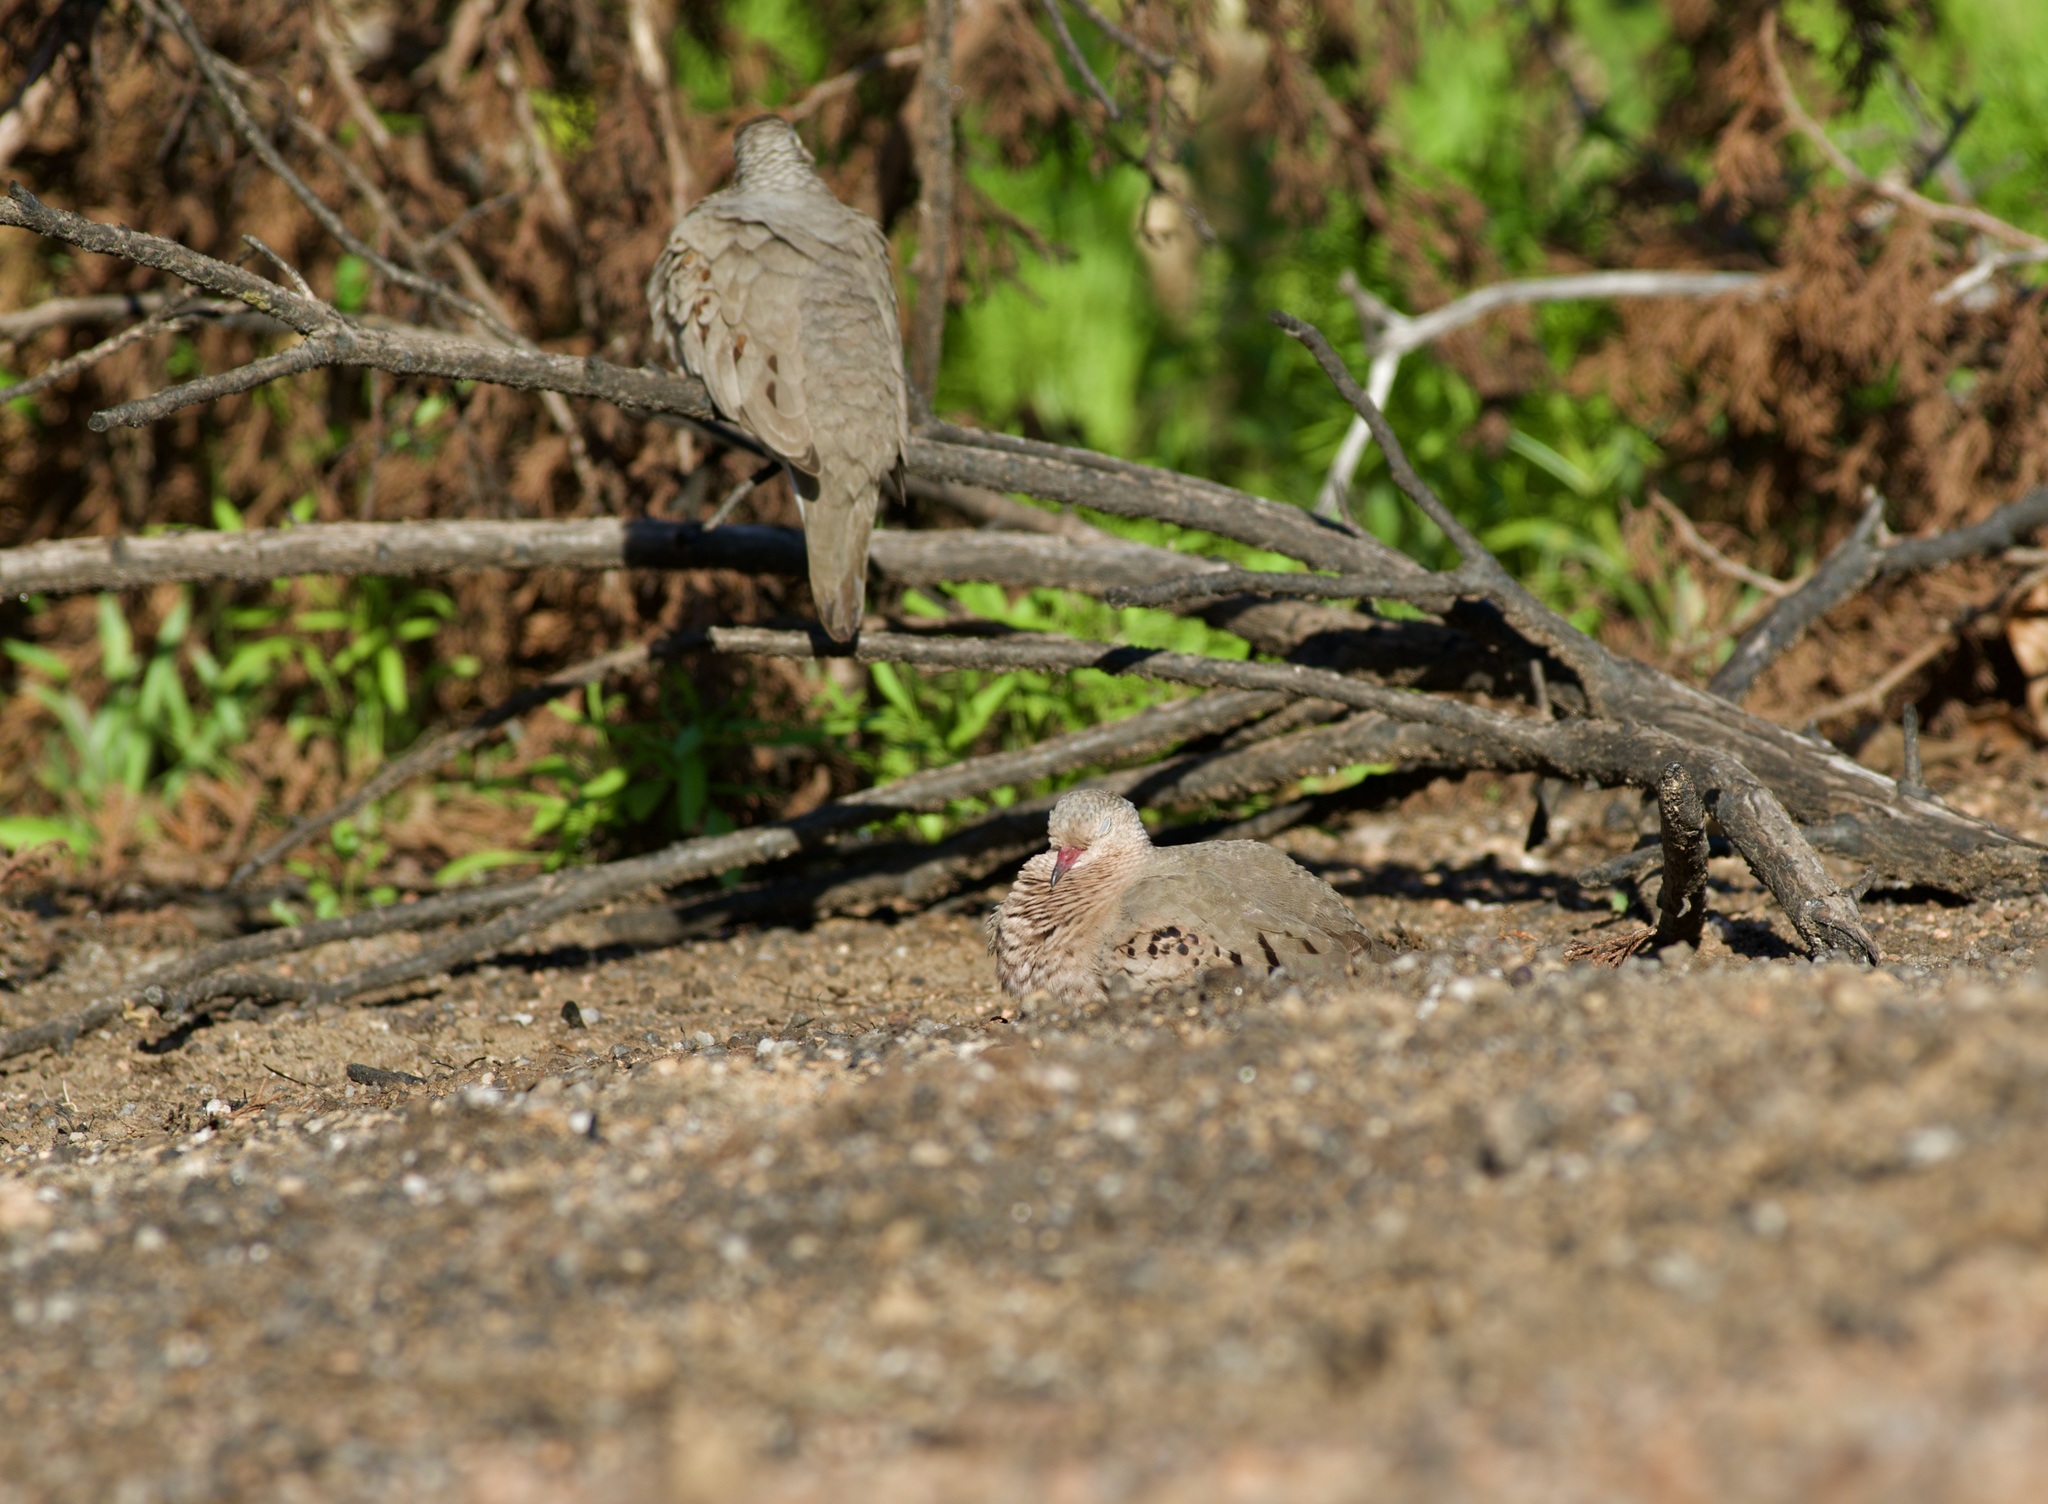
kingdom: Animalia
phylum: Chordata
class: Aves
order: Columbiformes
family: Columbidae
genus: Columbina
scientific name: Columbina passerina
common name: Common ground-dove
